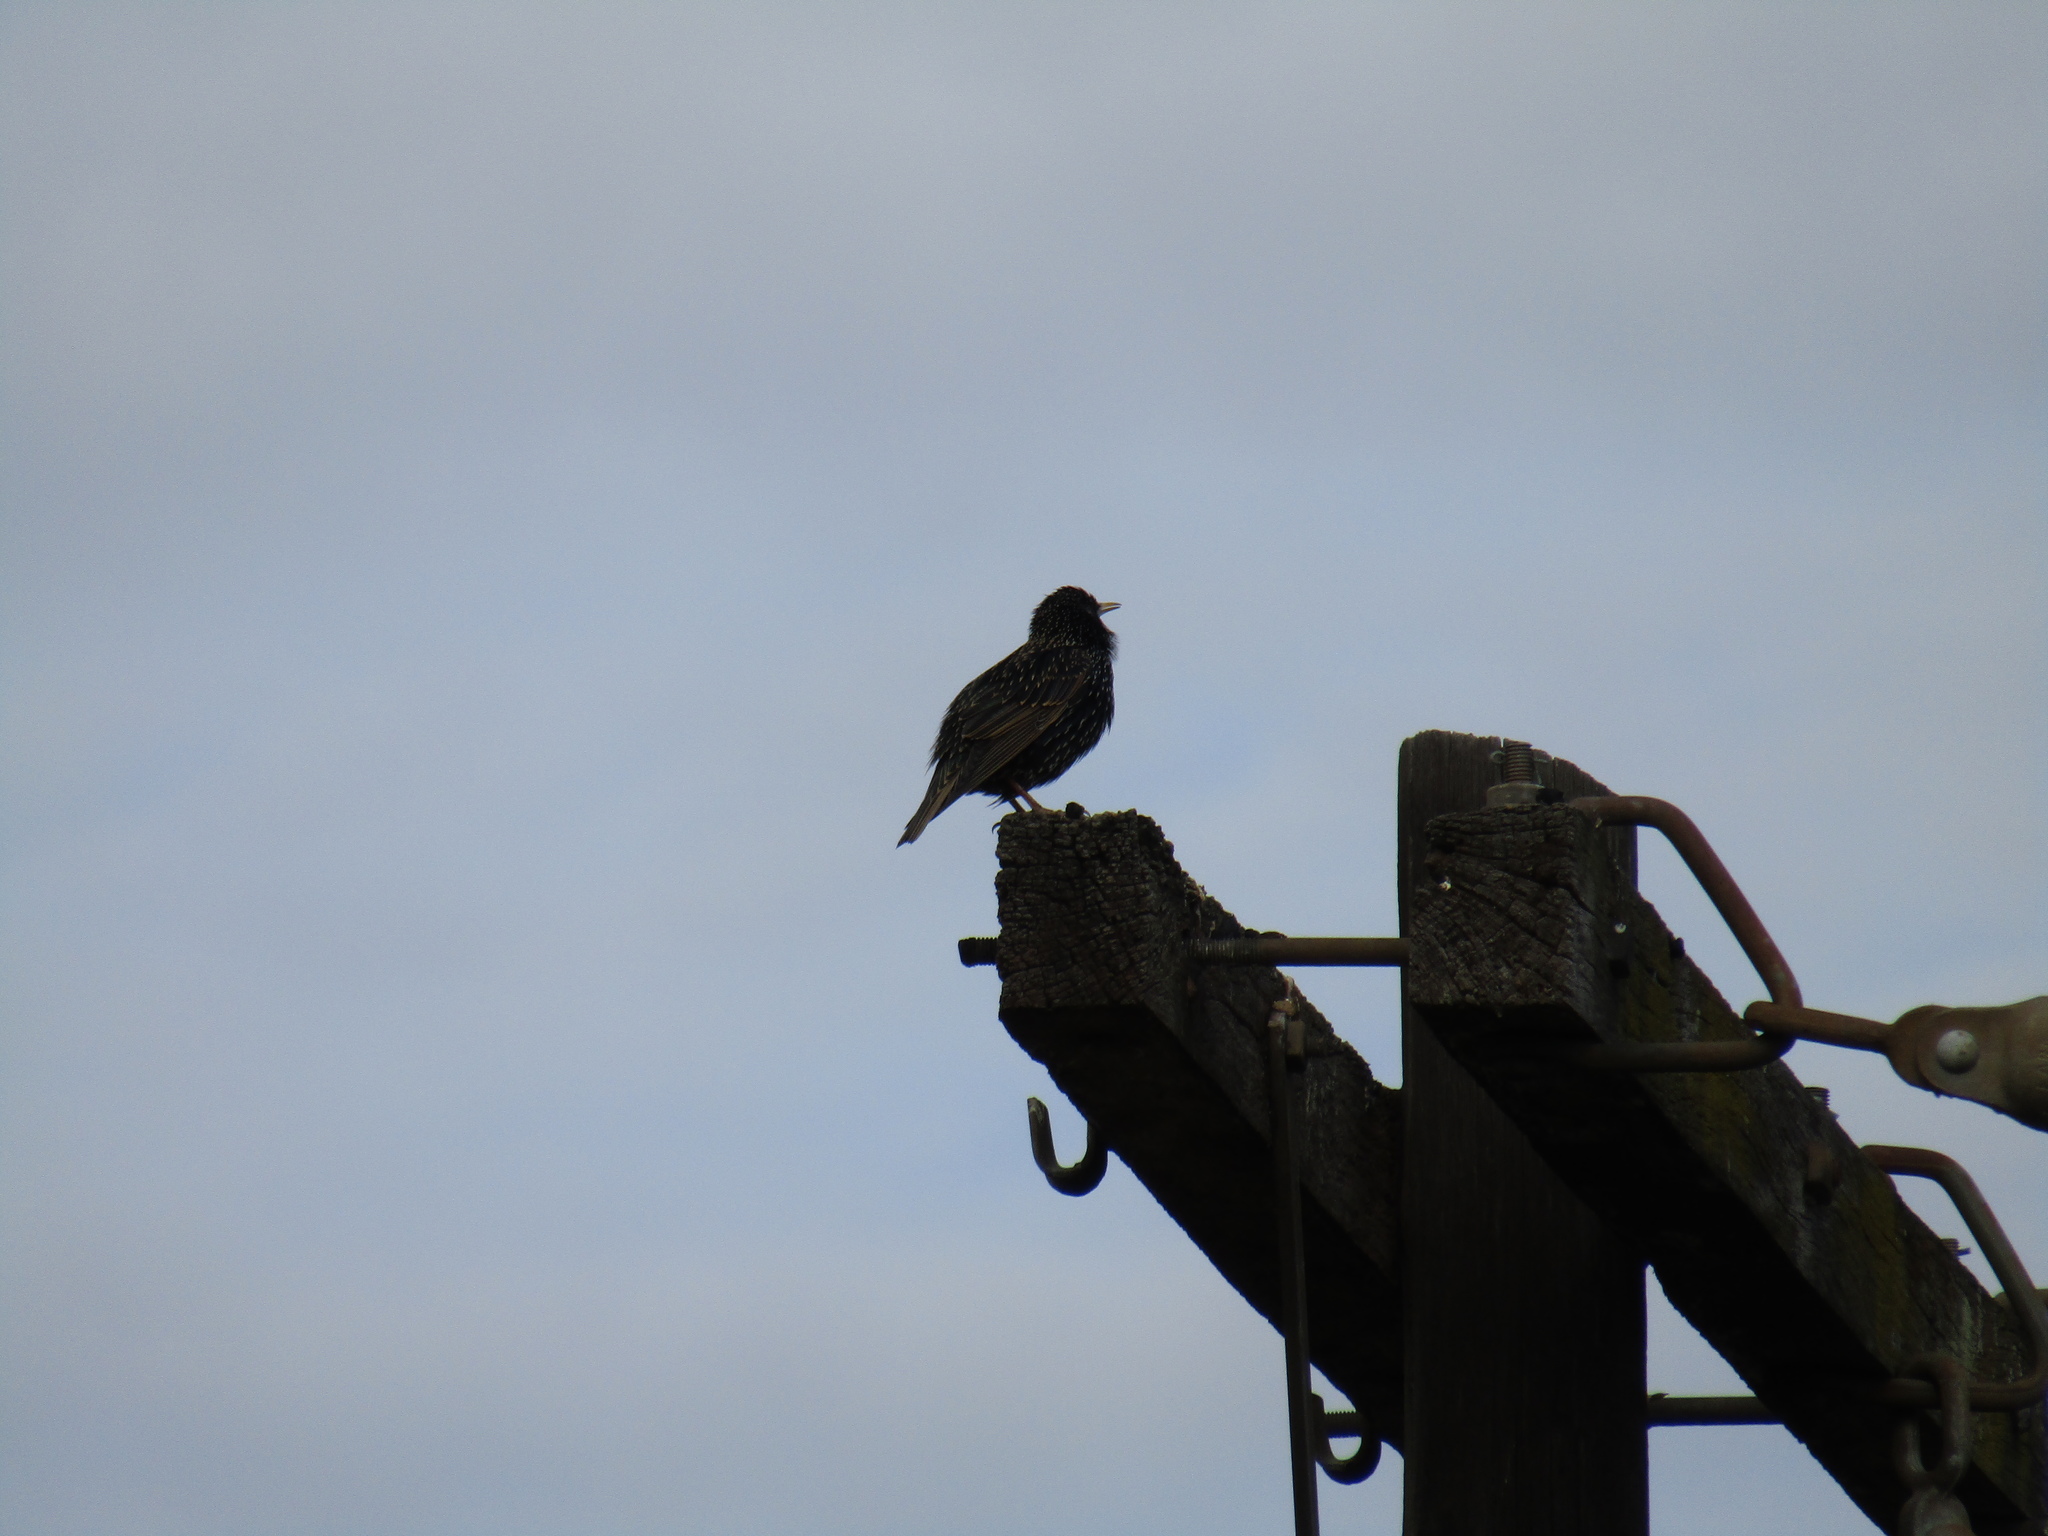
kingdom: Animalia
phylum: Chordata
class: Aves
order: Passeriformes
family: Sturnidae
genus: Sturnus
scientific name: Sturnus vulgaris
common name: Common starling
